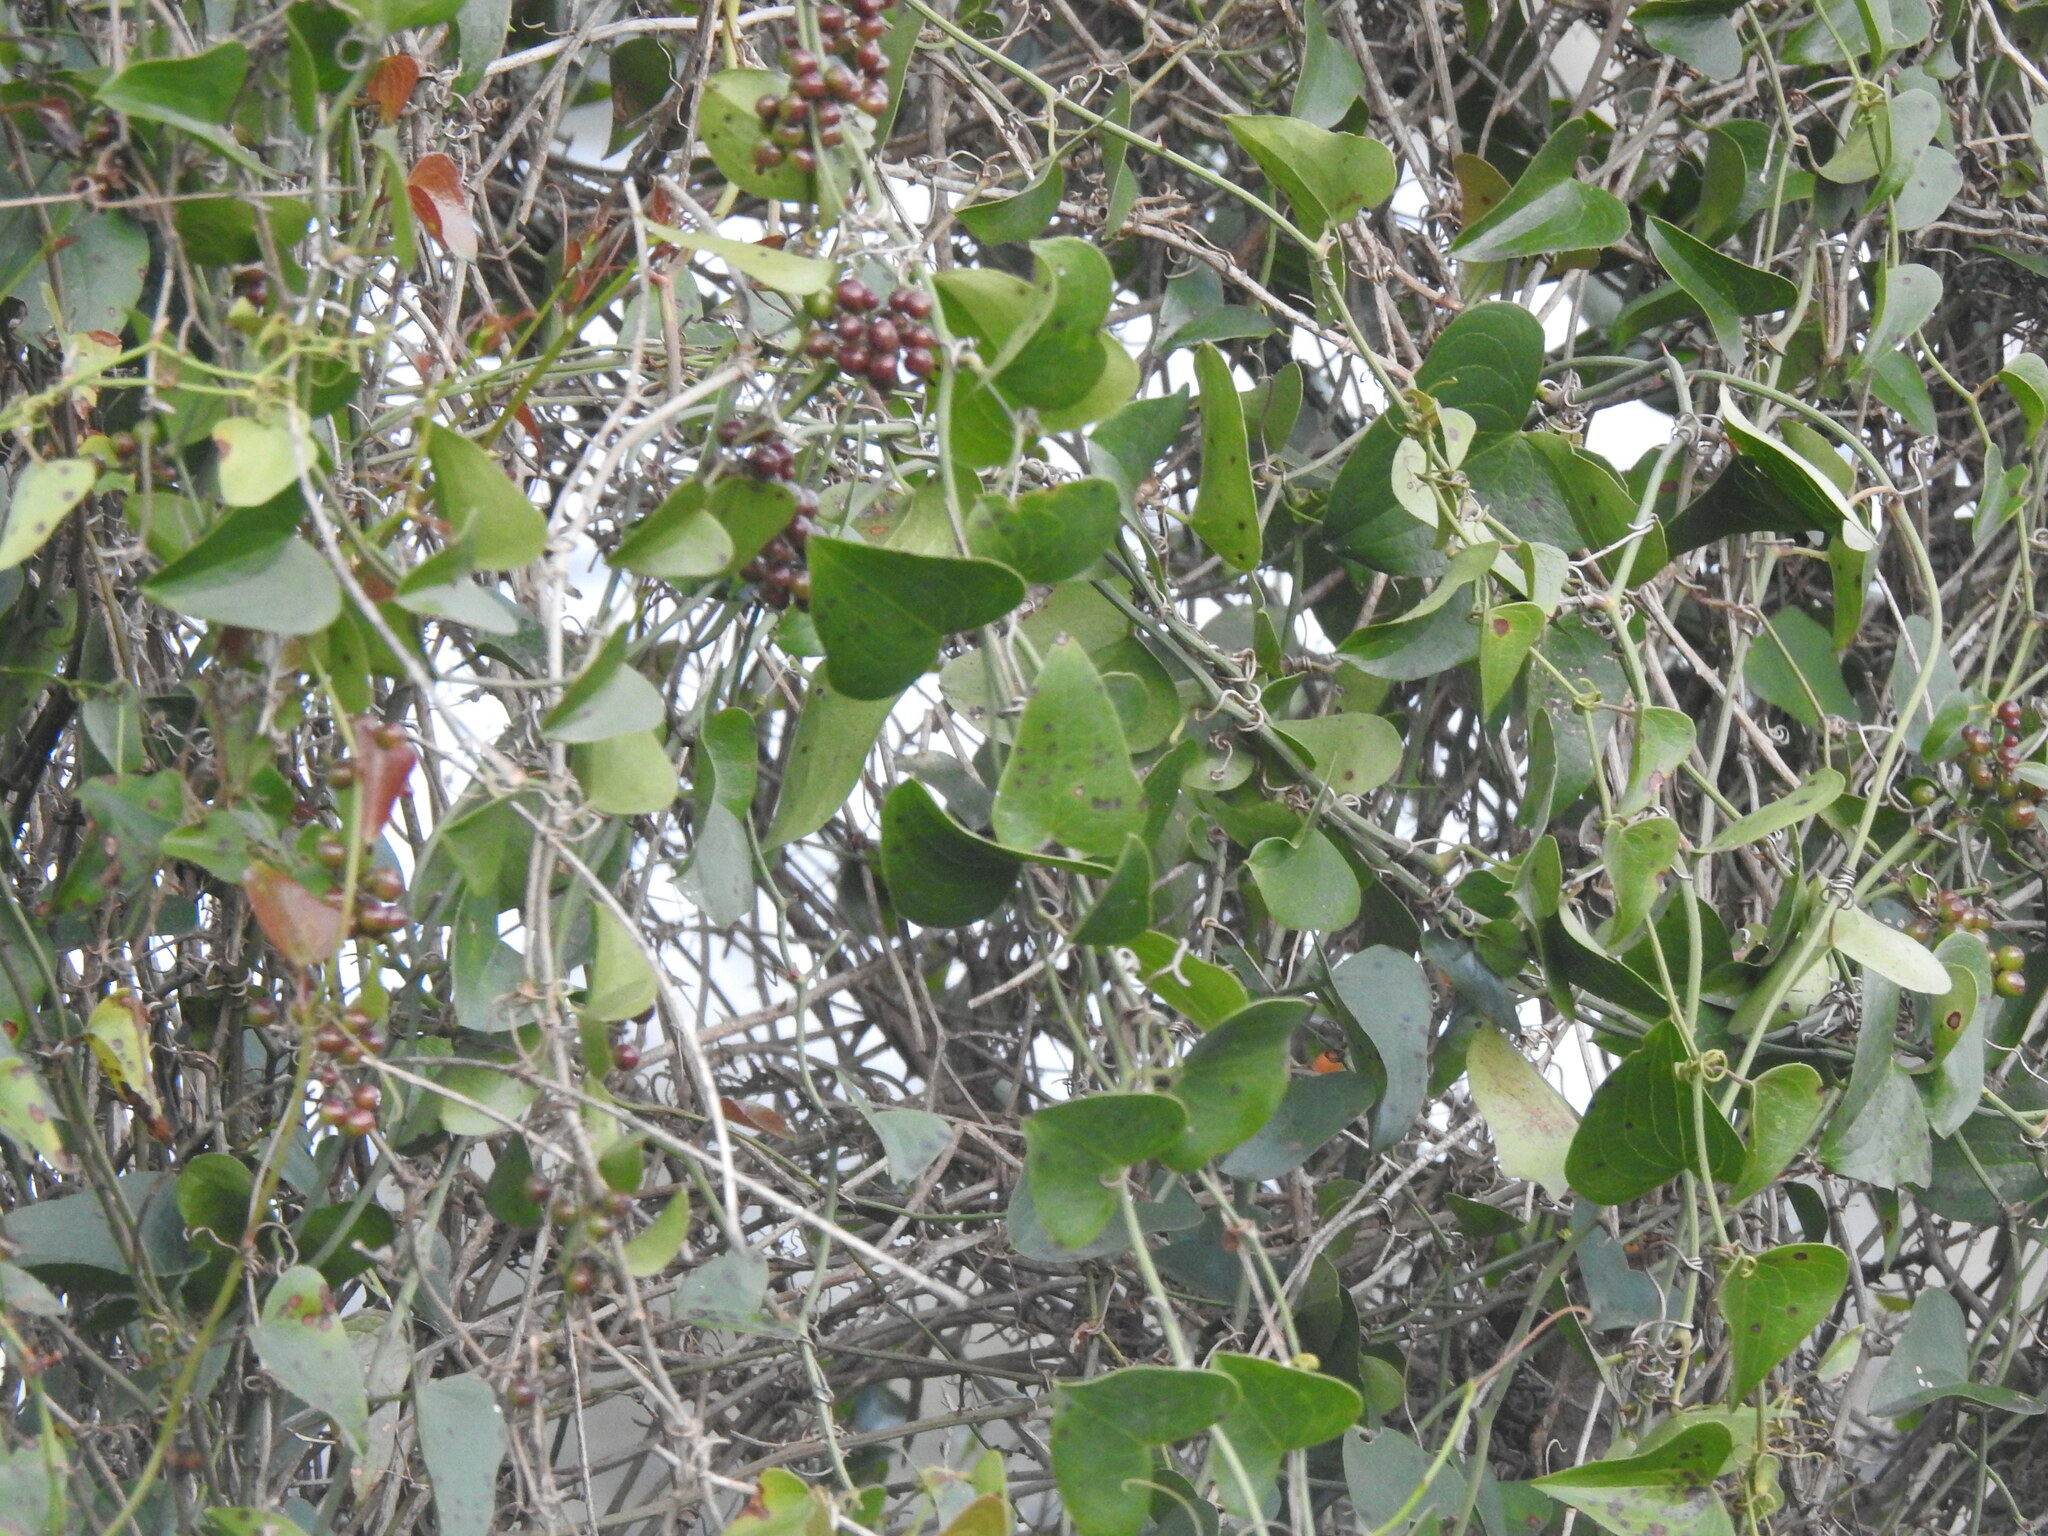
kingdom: Plantae
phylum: Tracheophyta
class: Liliopsida
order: Liliales
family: Smilacaceae
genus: Smilax
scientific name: Smilax aspera
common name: Common smilax
